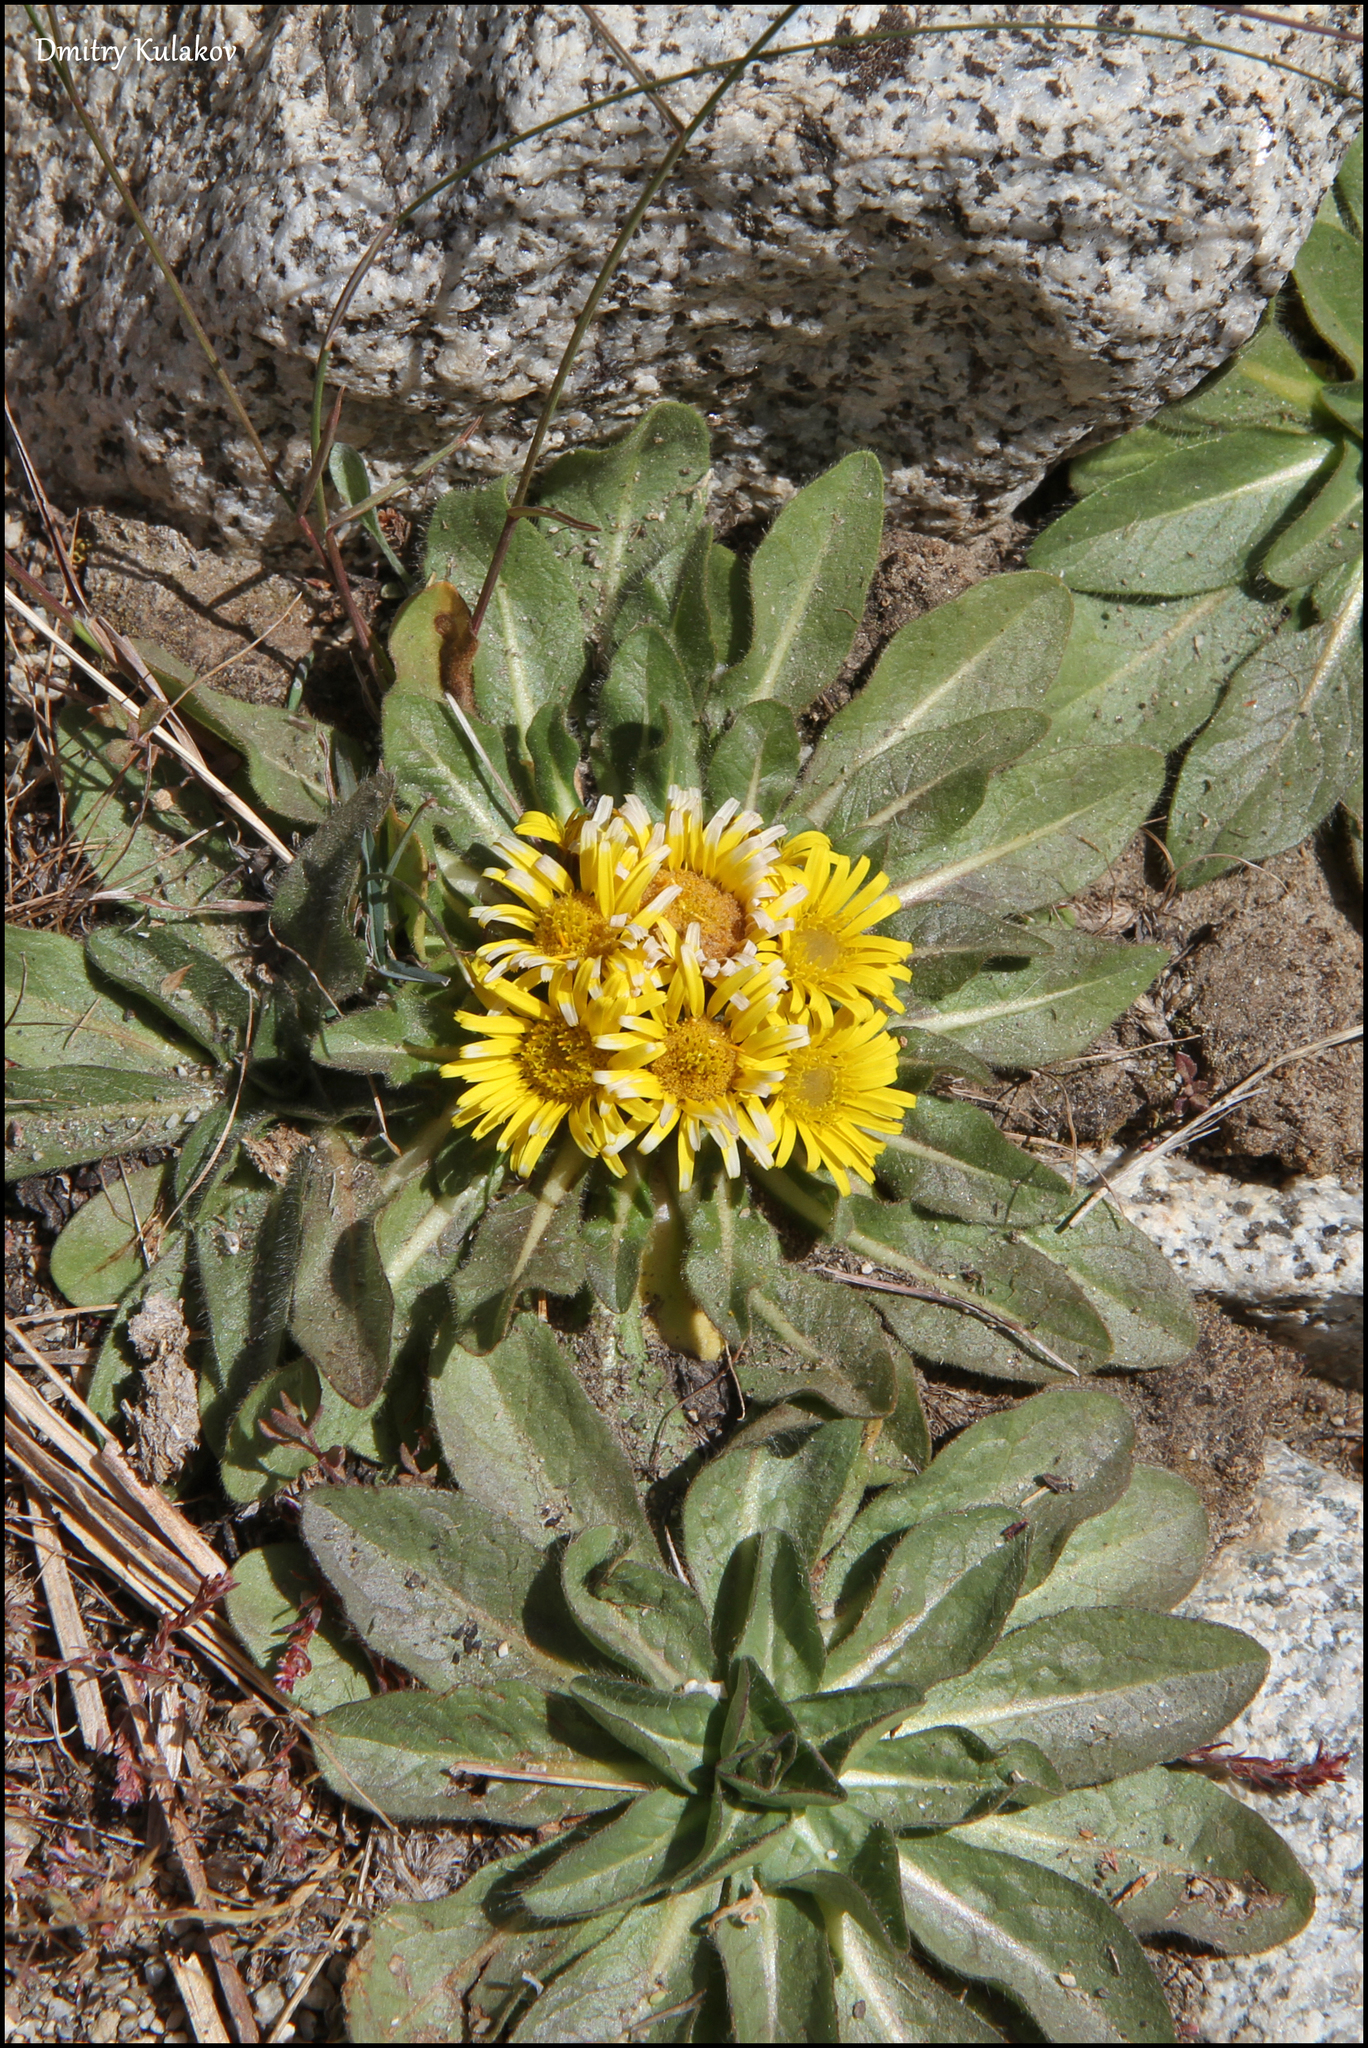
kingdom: Plantae
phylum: Tracheophyta
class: Magnoliopsida
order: Asterales
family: Asteraceae
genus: Inula
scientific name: Inula rhizocephala
